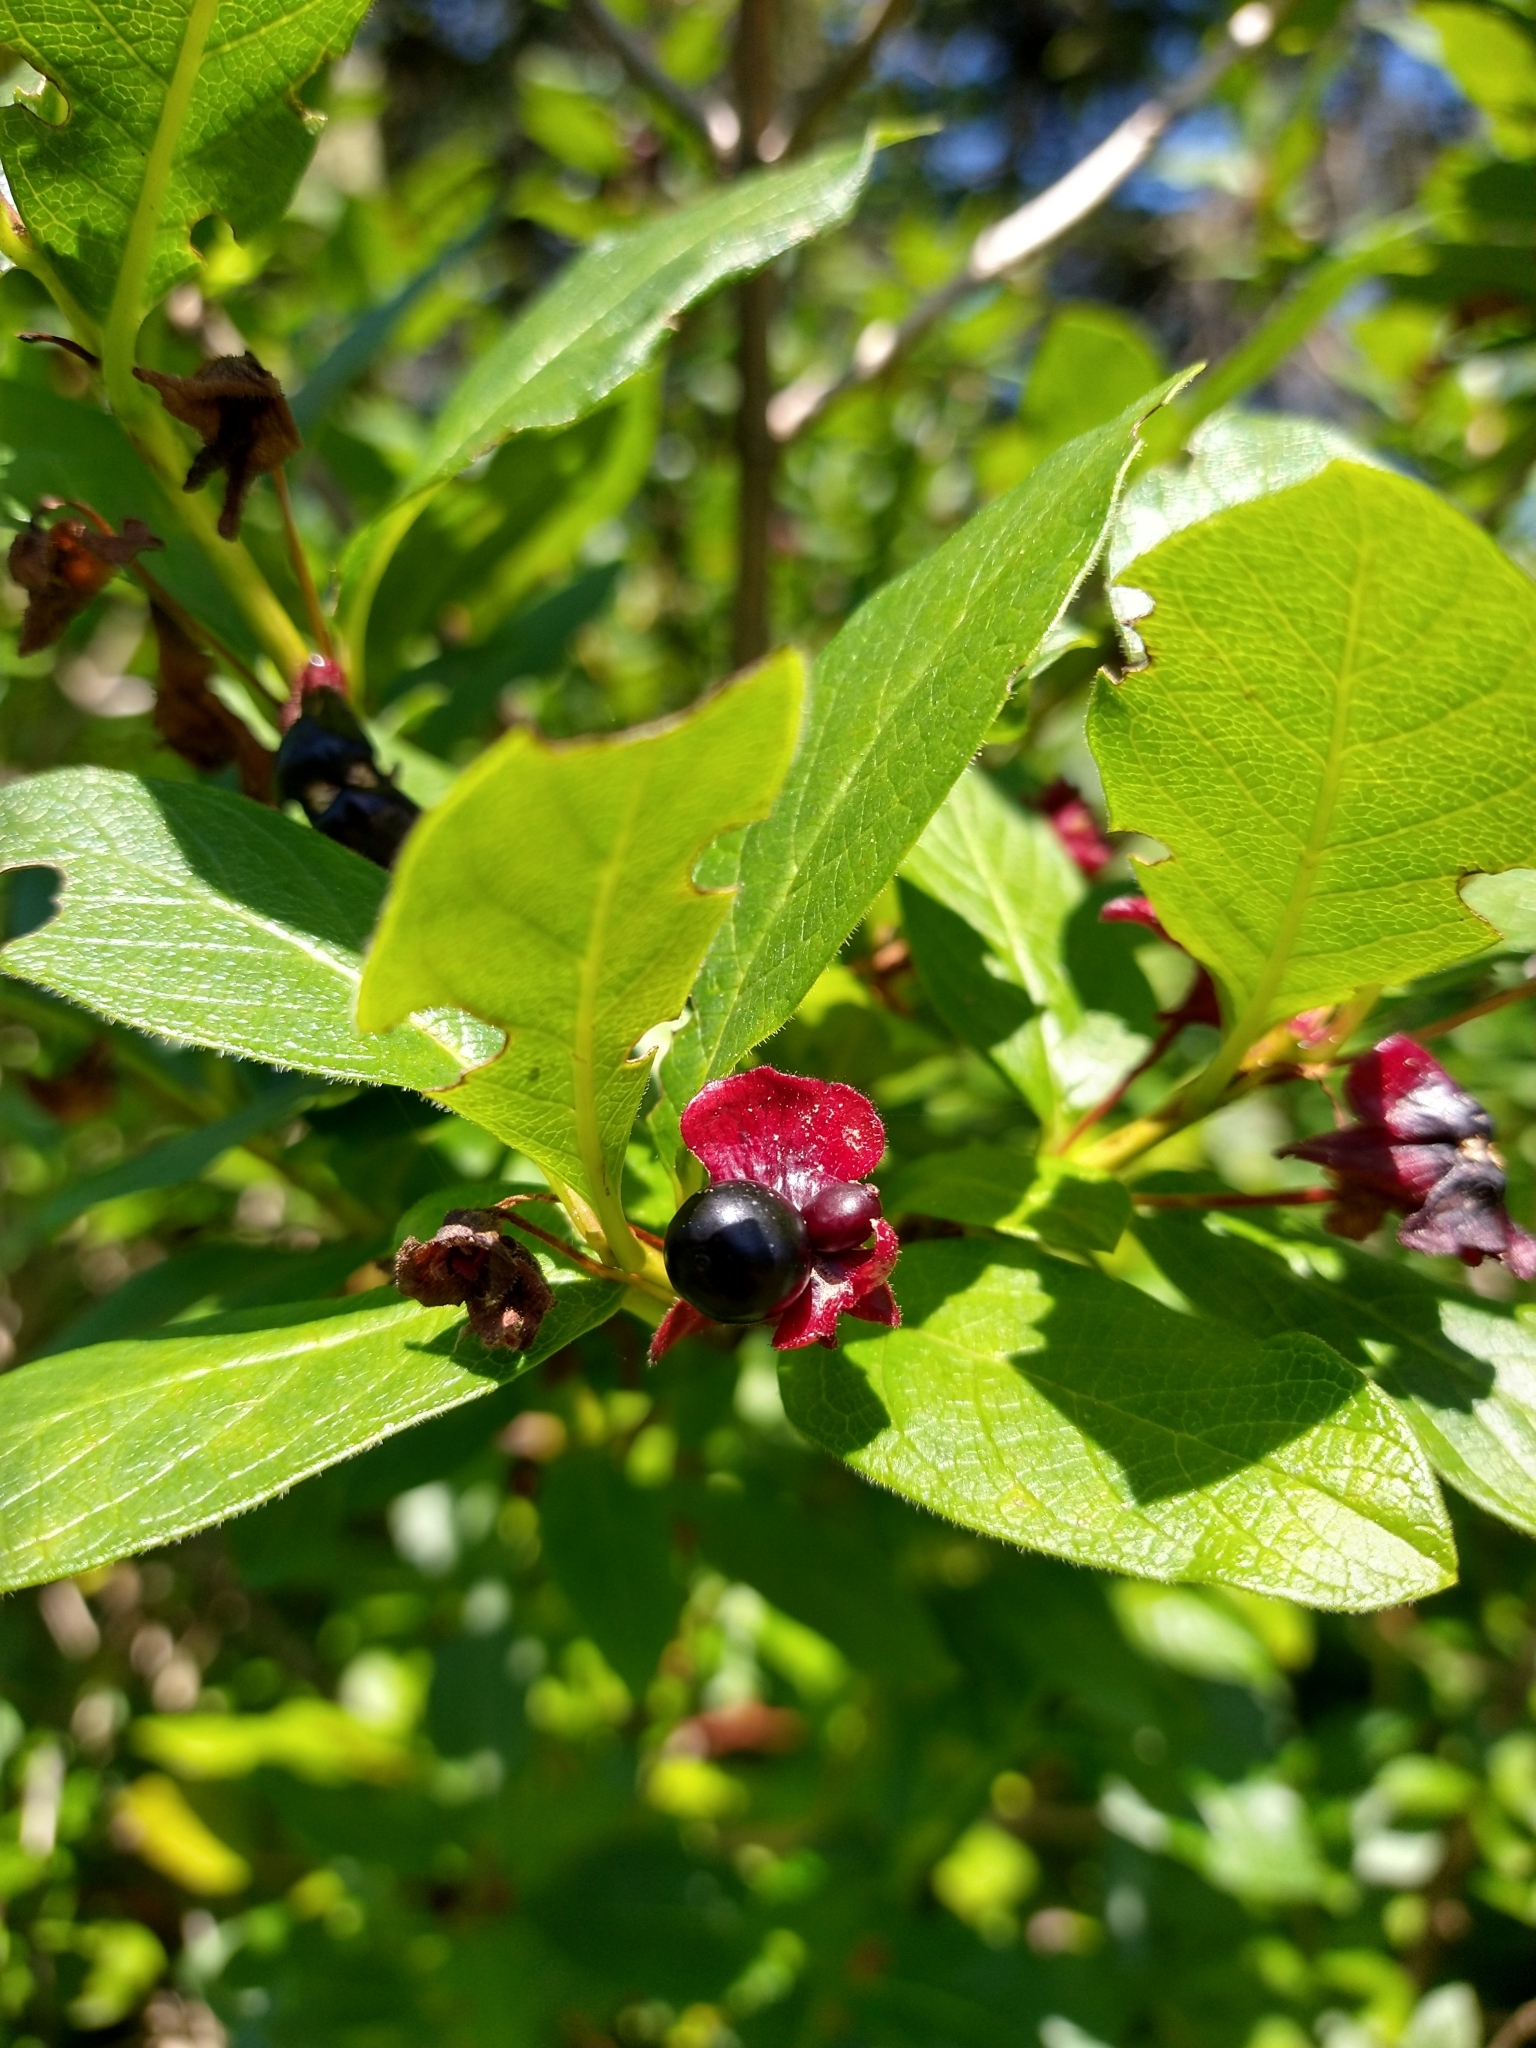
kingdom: Plantae
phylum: Tracheophyta
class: Magnoliopsida
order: Dipsacales
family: Caprifoliaceae
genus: Lonicera
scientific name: Lonicera involucrata
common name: Californian honeysuckle
